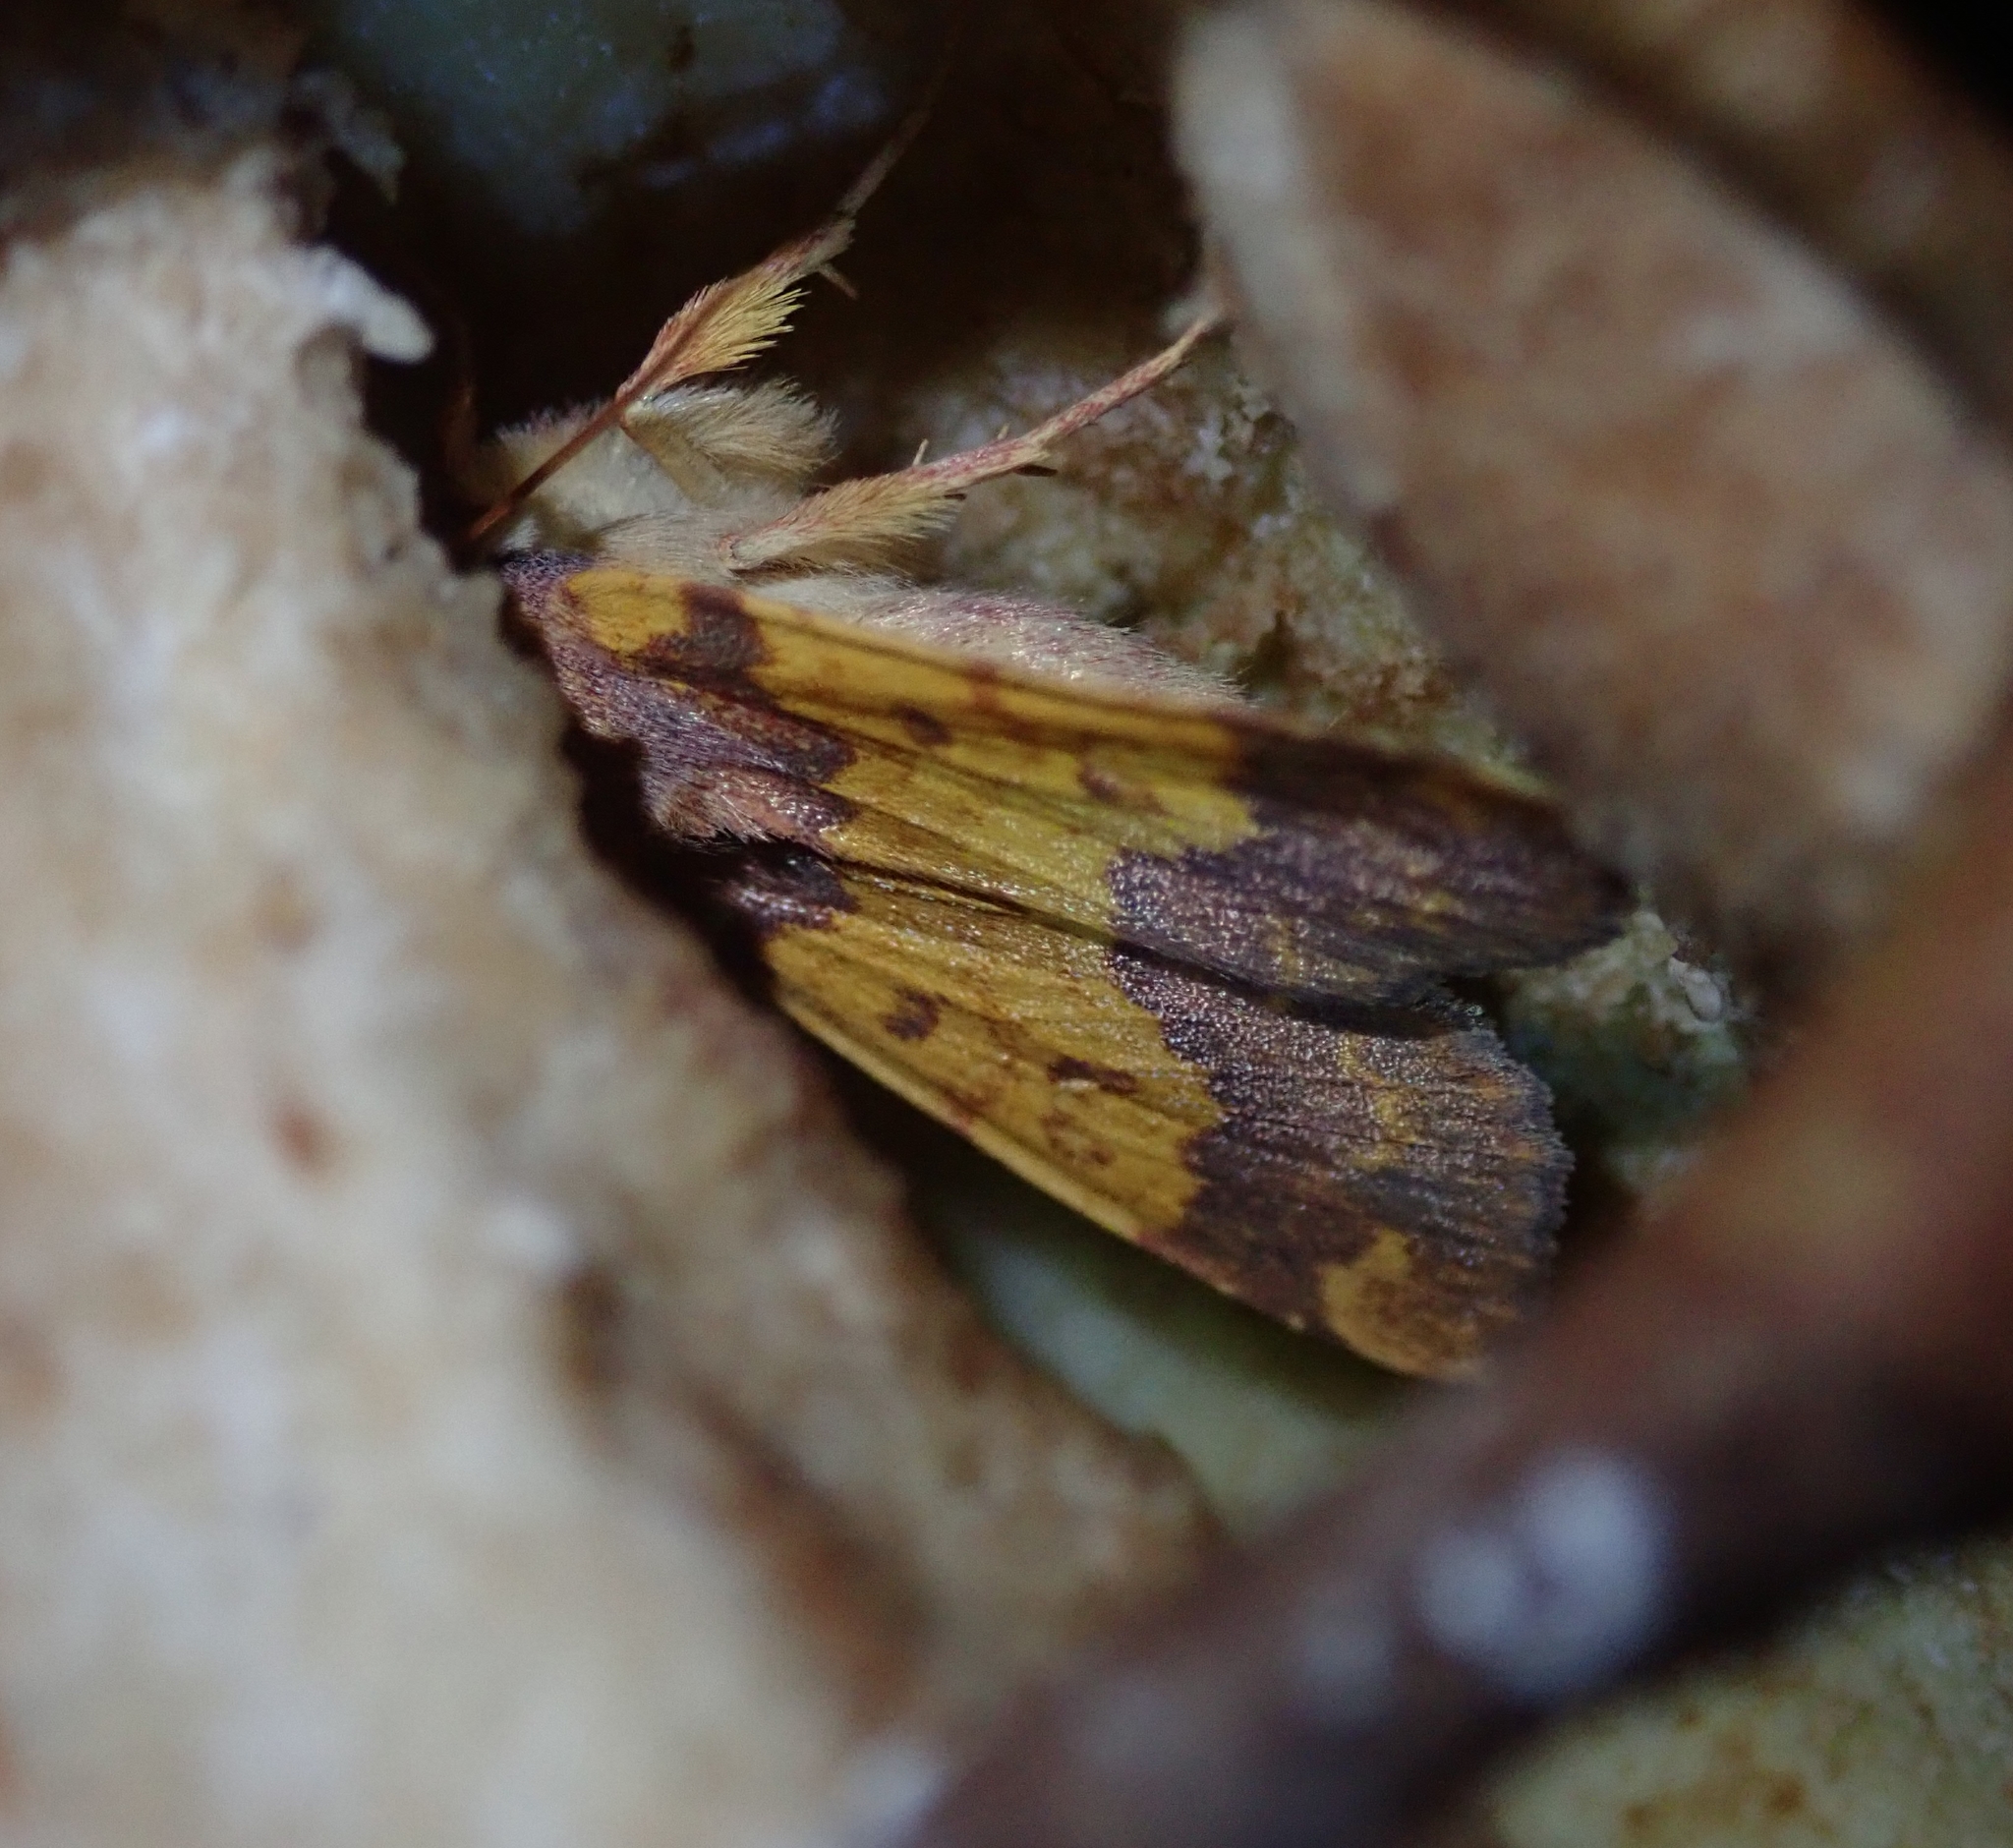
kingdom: Animalia
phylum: Arthropoda
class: Insecta
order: Lepidoptera
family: Noctuidae
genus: Tiliacea
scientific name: Tiliacea aurago
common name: Barred sallow
